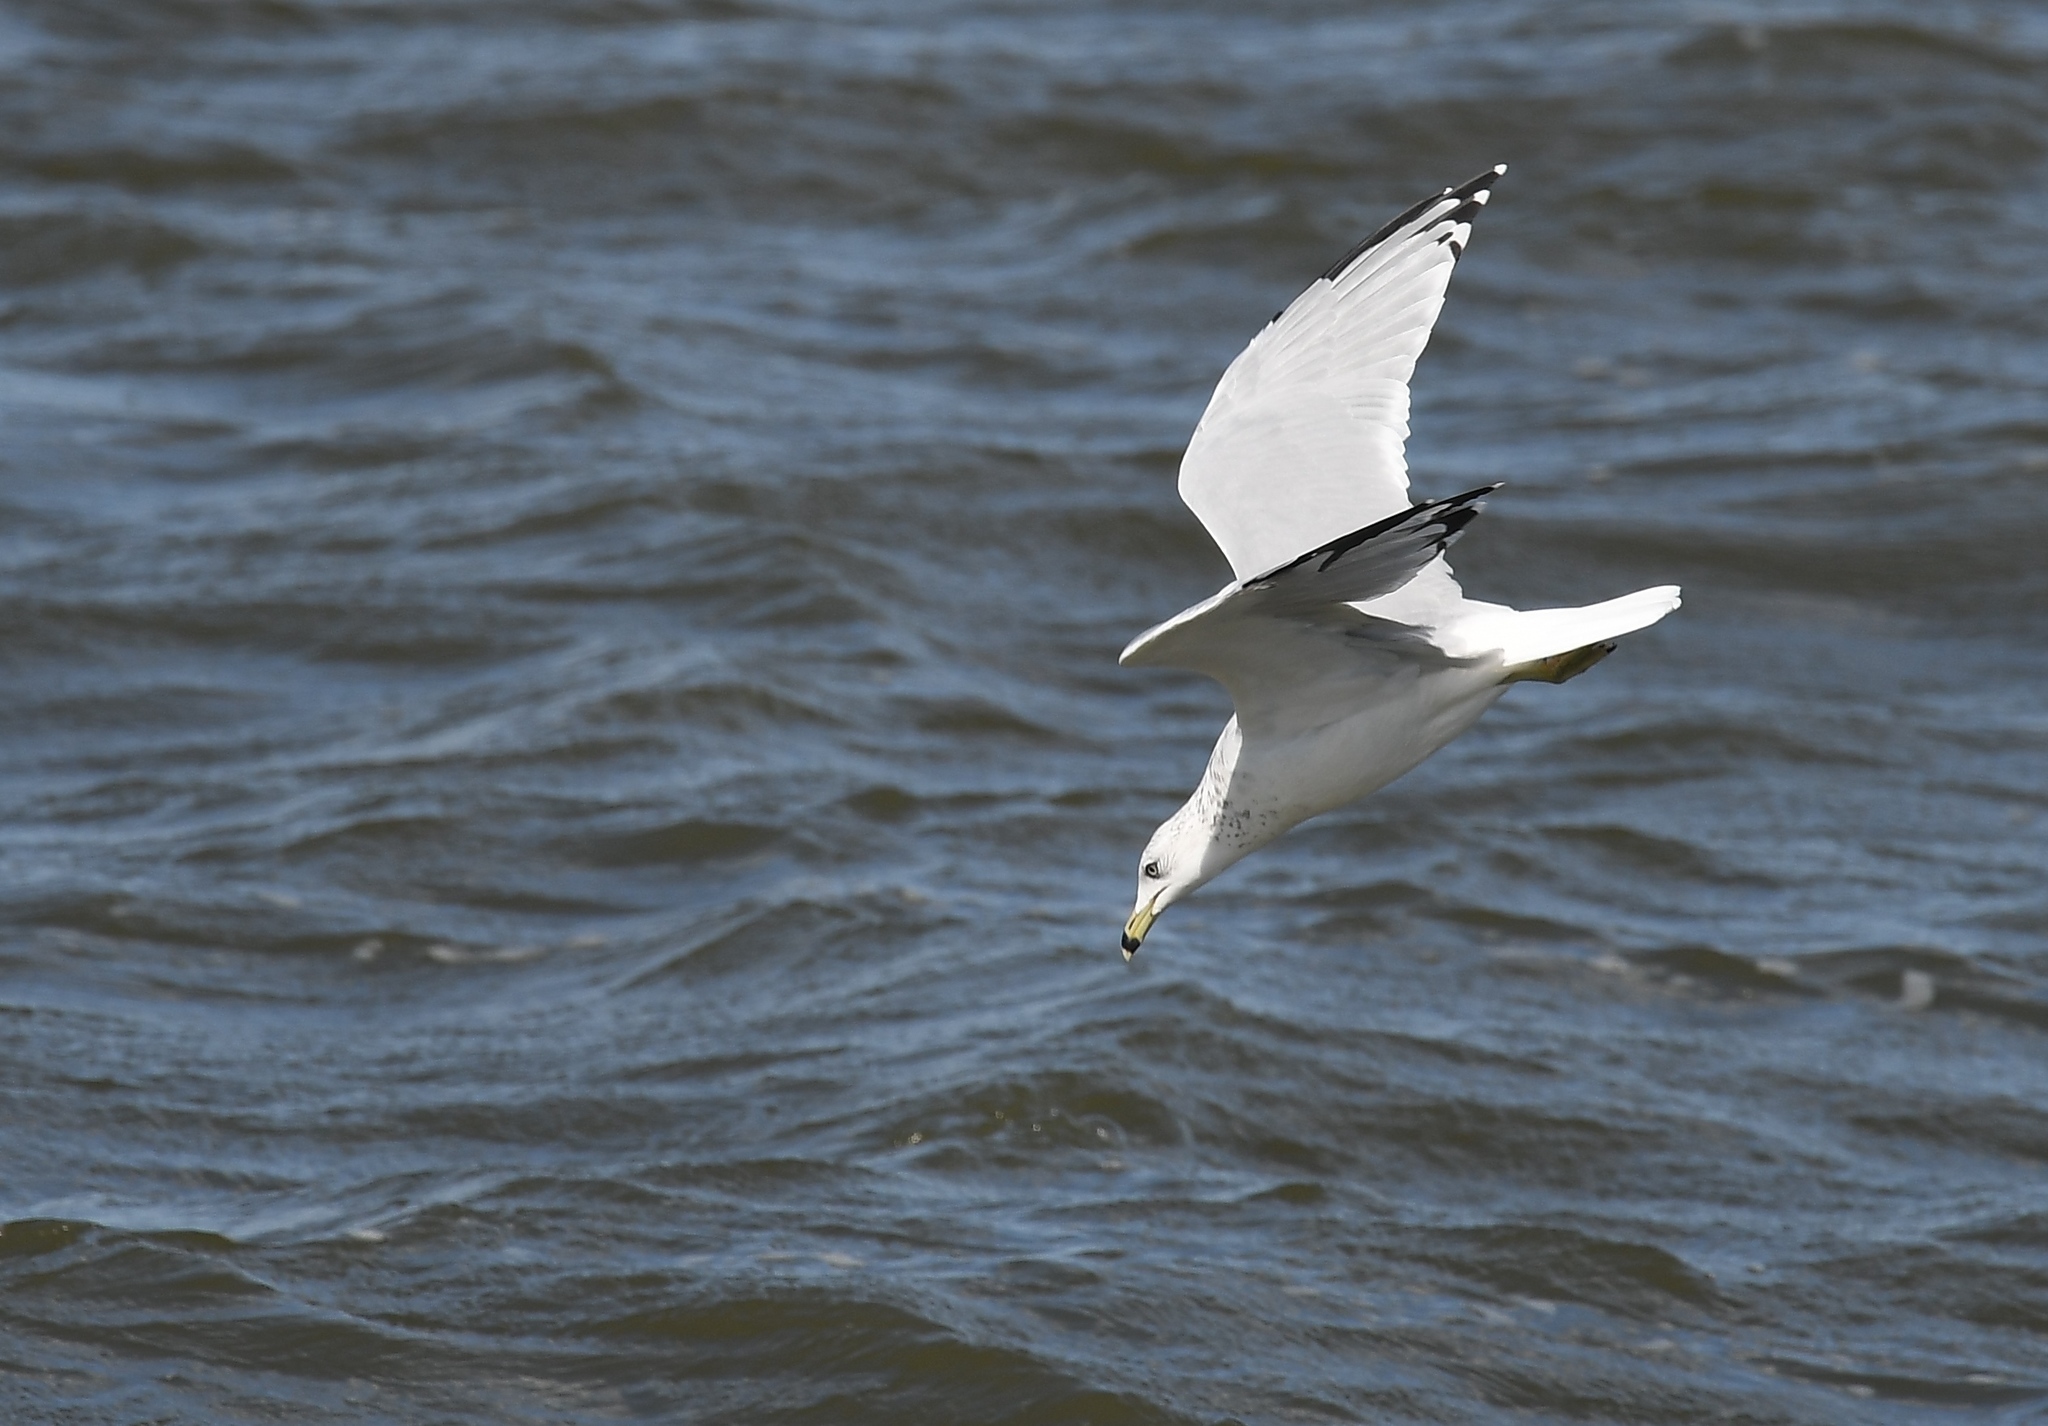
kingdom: Animalia
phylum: Chordata
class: Aves
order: Charadriiformes
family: Laridae
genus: Larus
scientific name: Larus delawarensis
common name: Ring-billed gull
